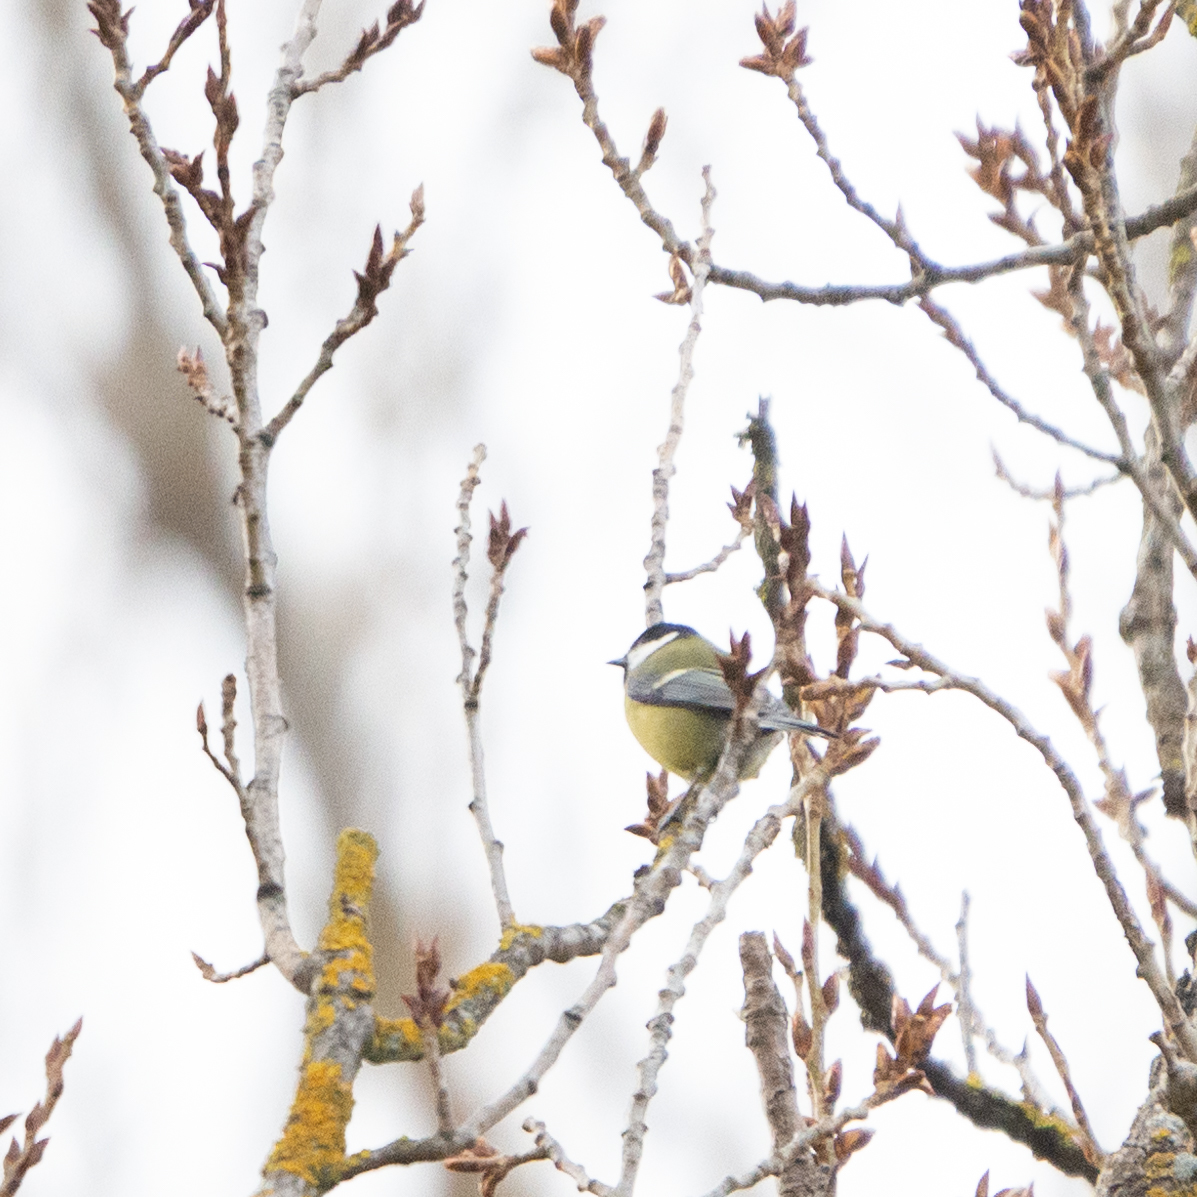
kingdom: Animalia
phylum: Chordata
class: Aves
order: Passeriformes
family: Paridae
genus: Parus
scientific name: Parus major
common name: Great tit
